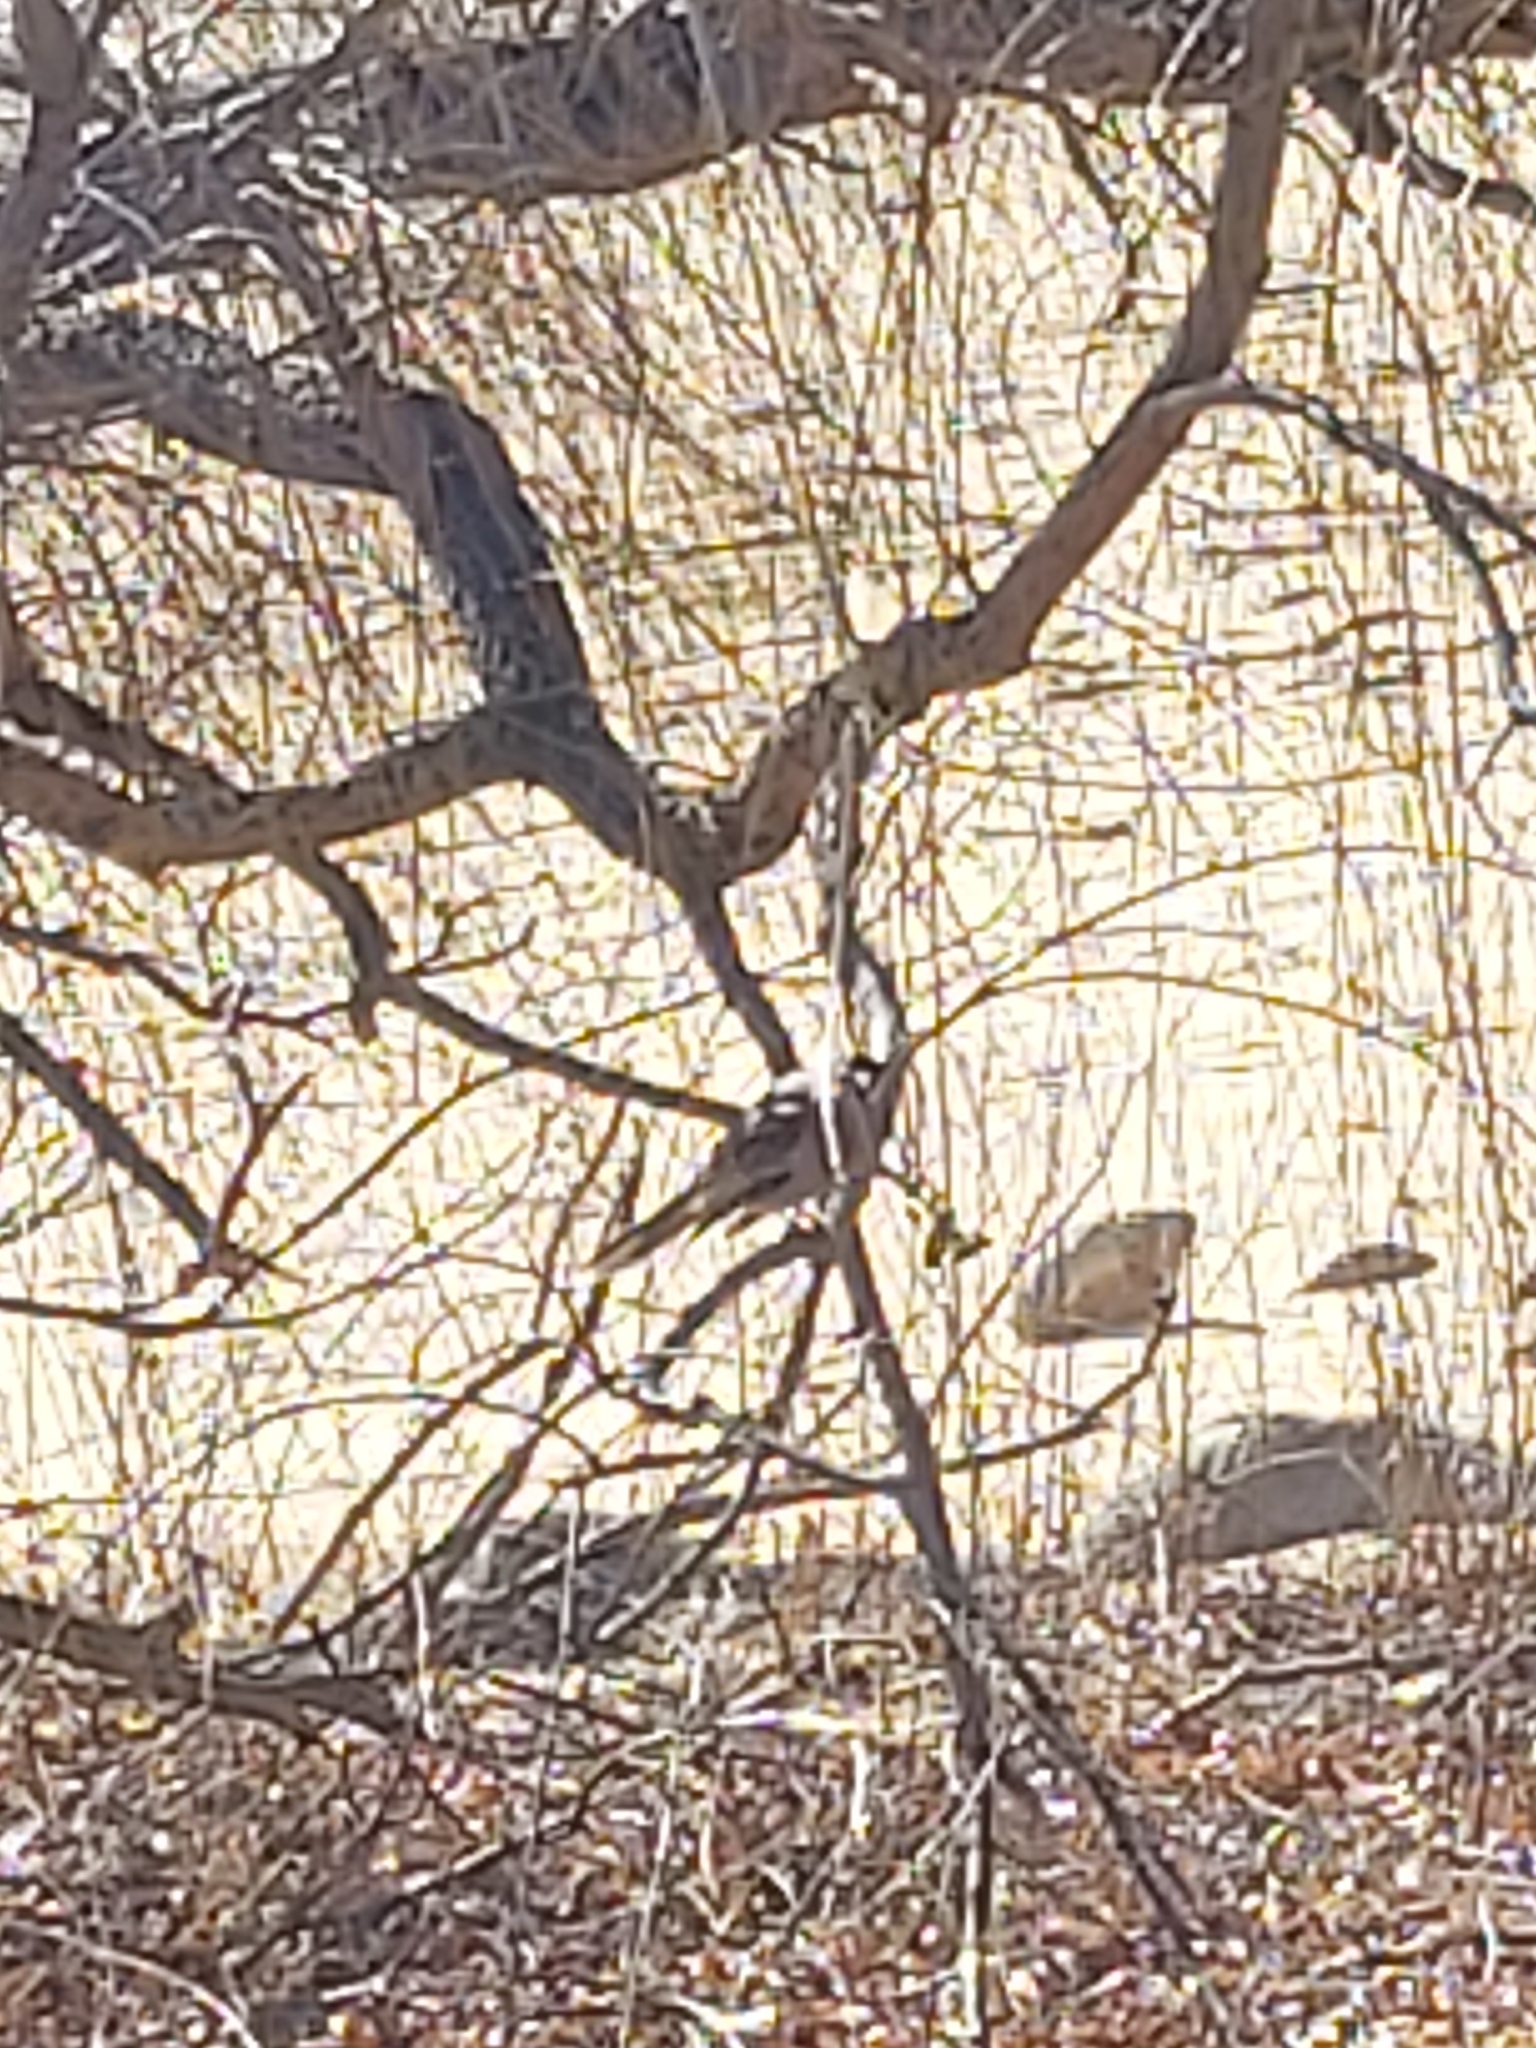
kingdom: Animalia
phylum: Chordata
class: Aves
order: Passeriformes
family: Meliphagidae
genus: Anthochaera
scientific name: Anthochaera carunculata
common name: Red wattlebird
